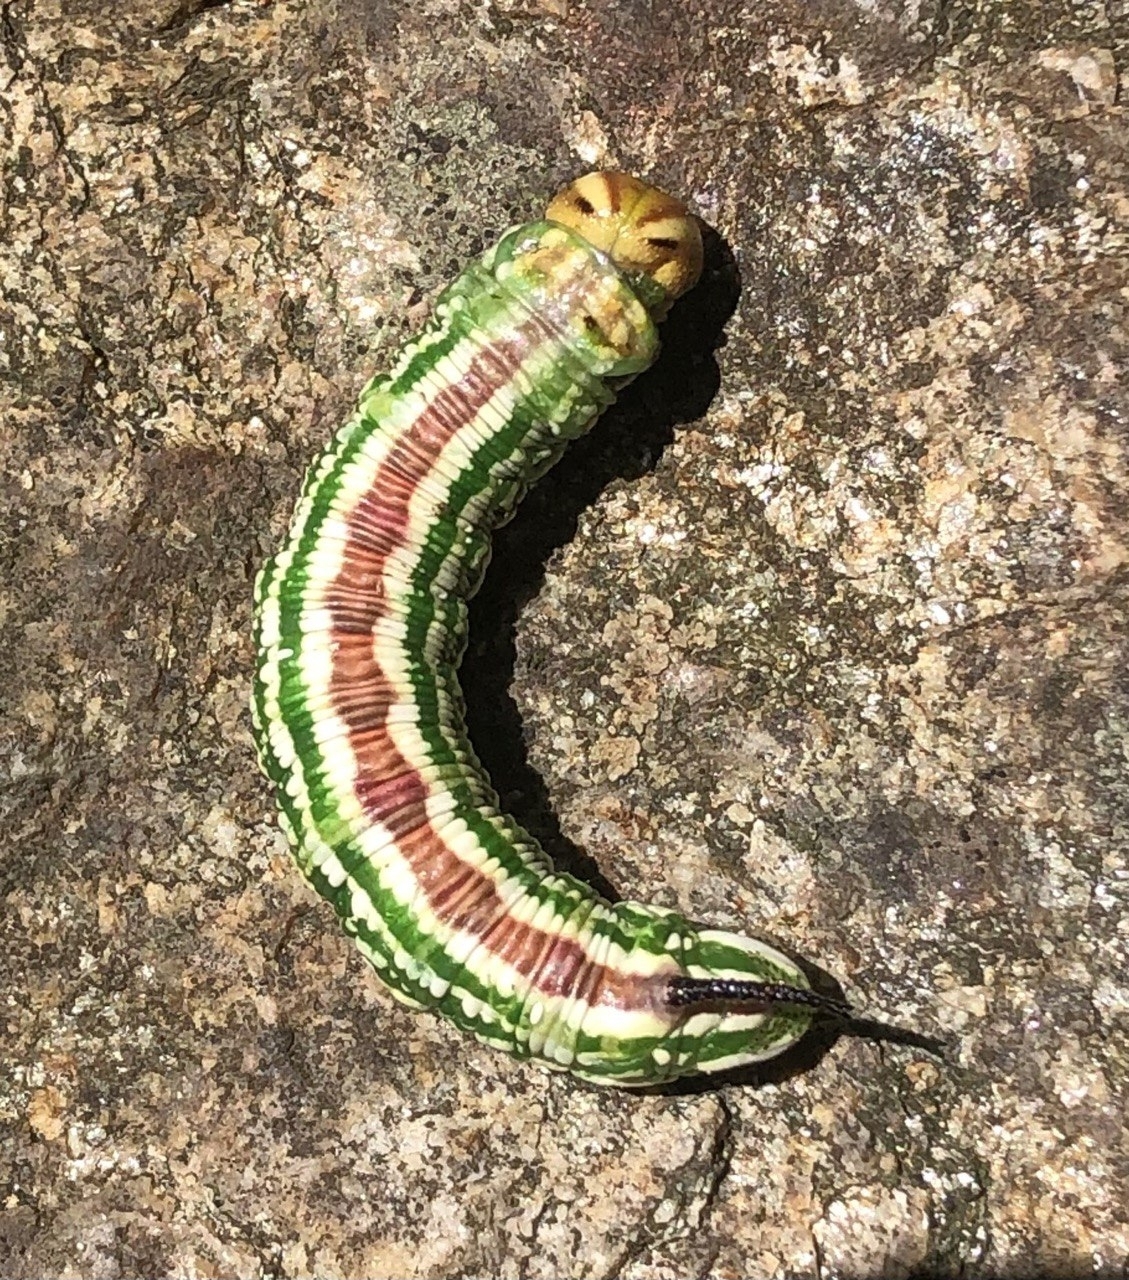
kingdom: Animalia
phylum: Arthropoda
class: Insecta
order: Lepidoptera
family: Sphingidae
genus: Sphinx
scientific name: Sphinx pinastri
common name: Pine hawk-moth
